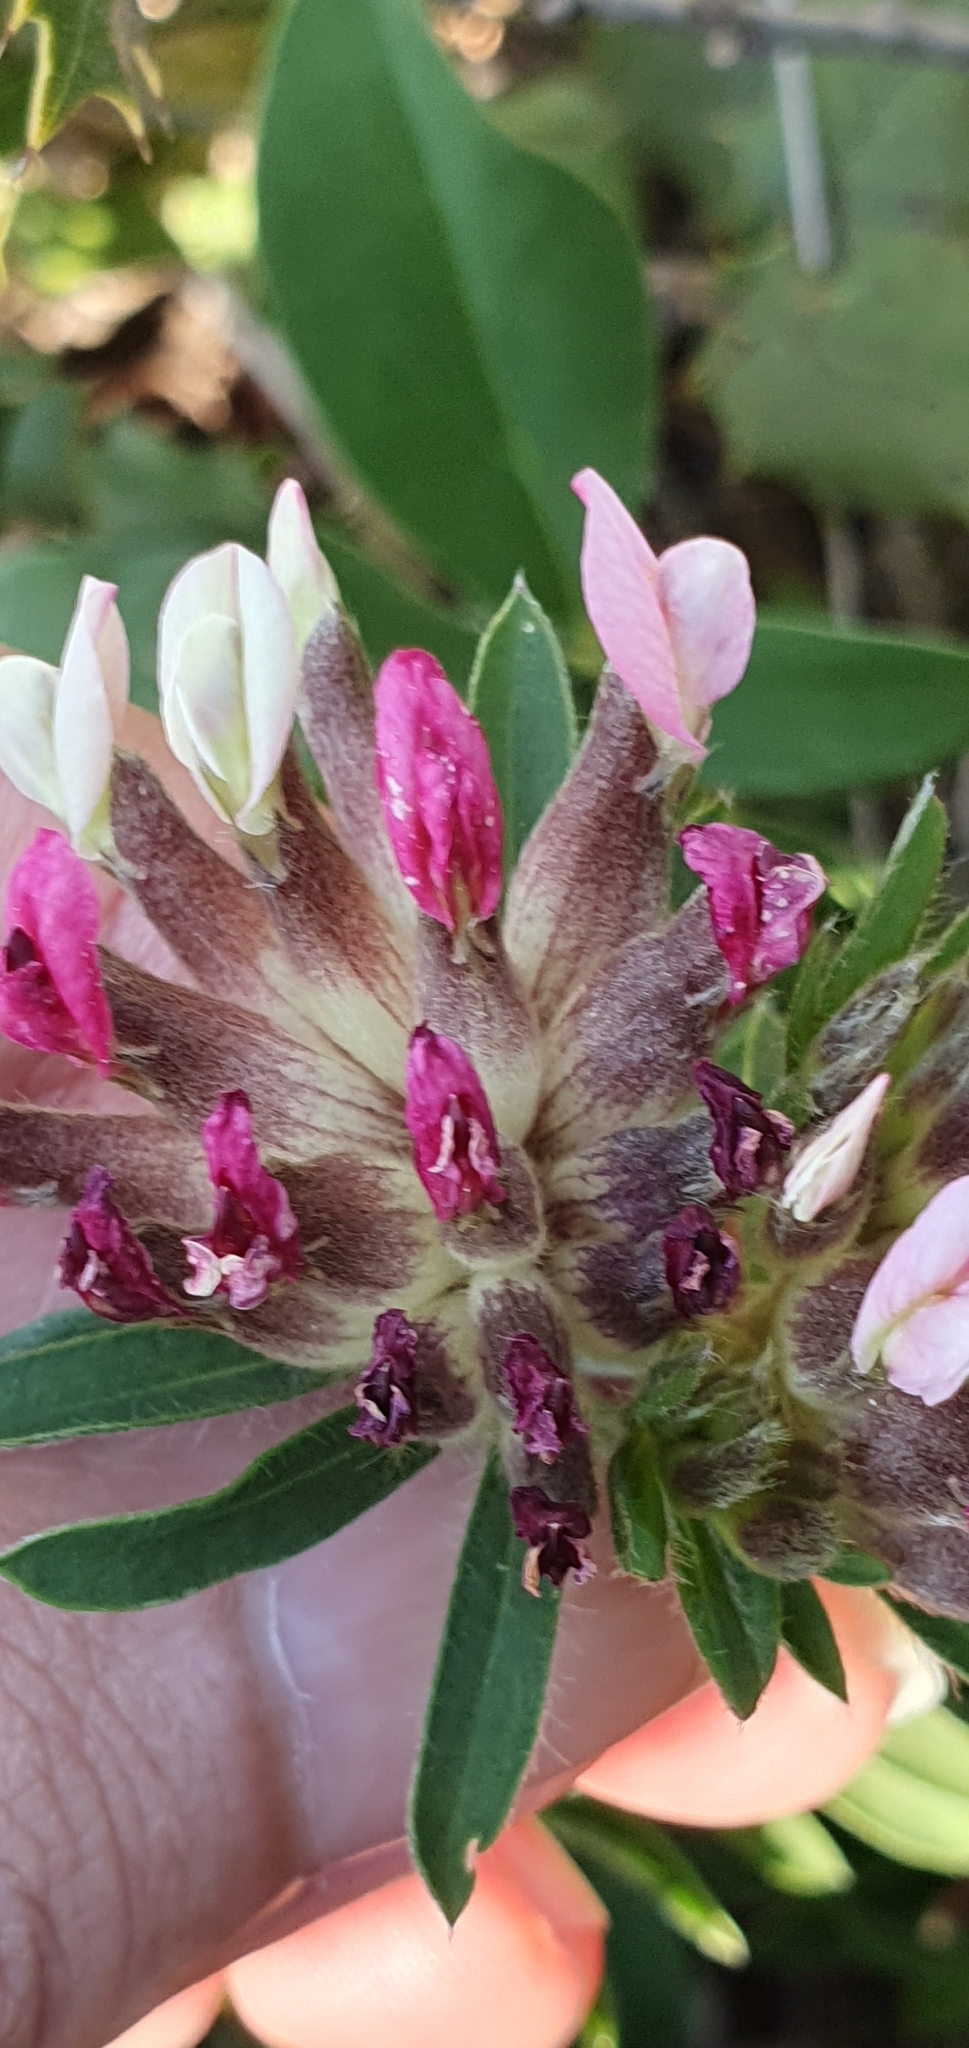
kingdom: Plantae
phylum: Tracheophyta
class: Magnoliopsida
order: Fabales
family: Fabaceae
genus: Anthyllis
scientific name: Anthyllis vulneraria
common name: Kidney vetch
